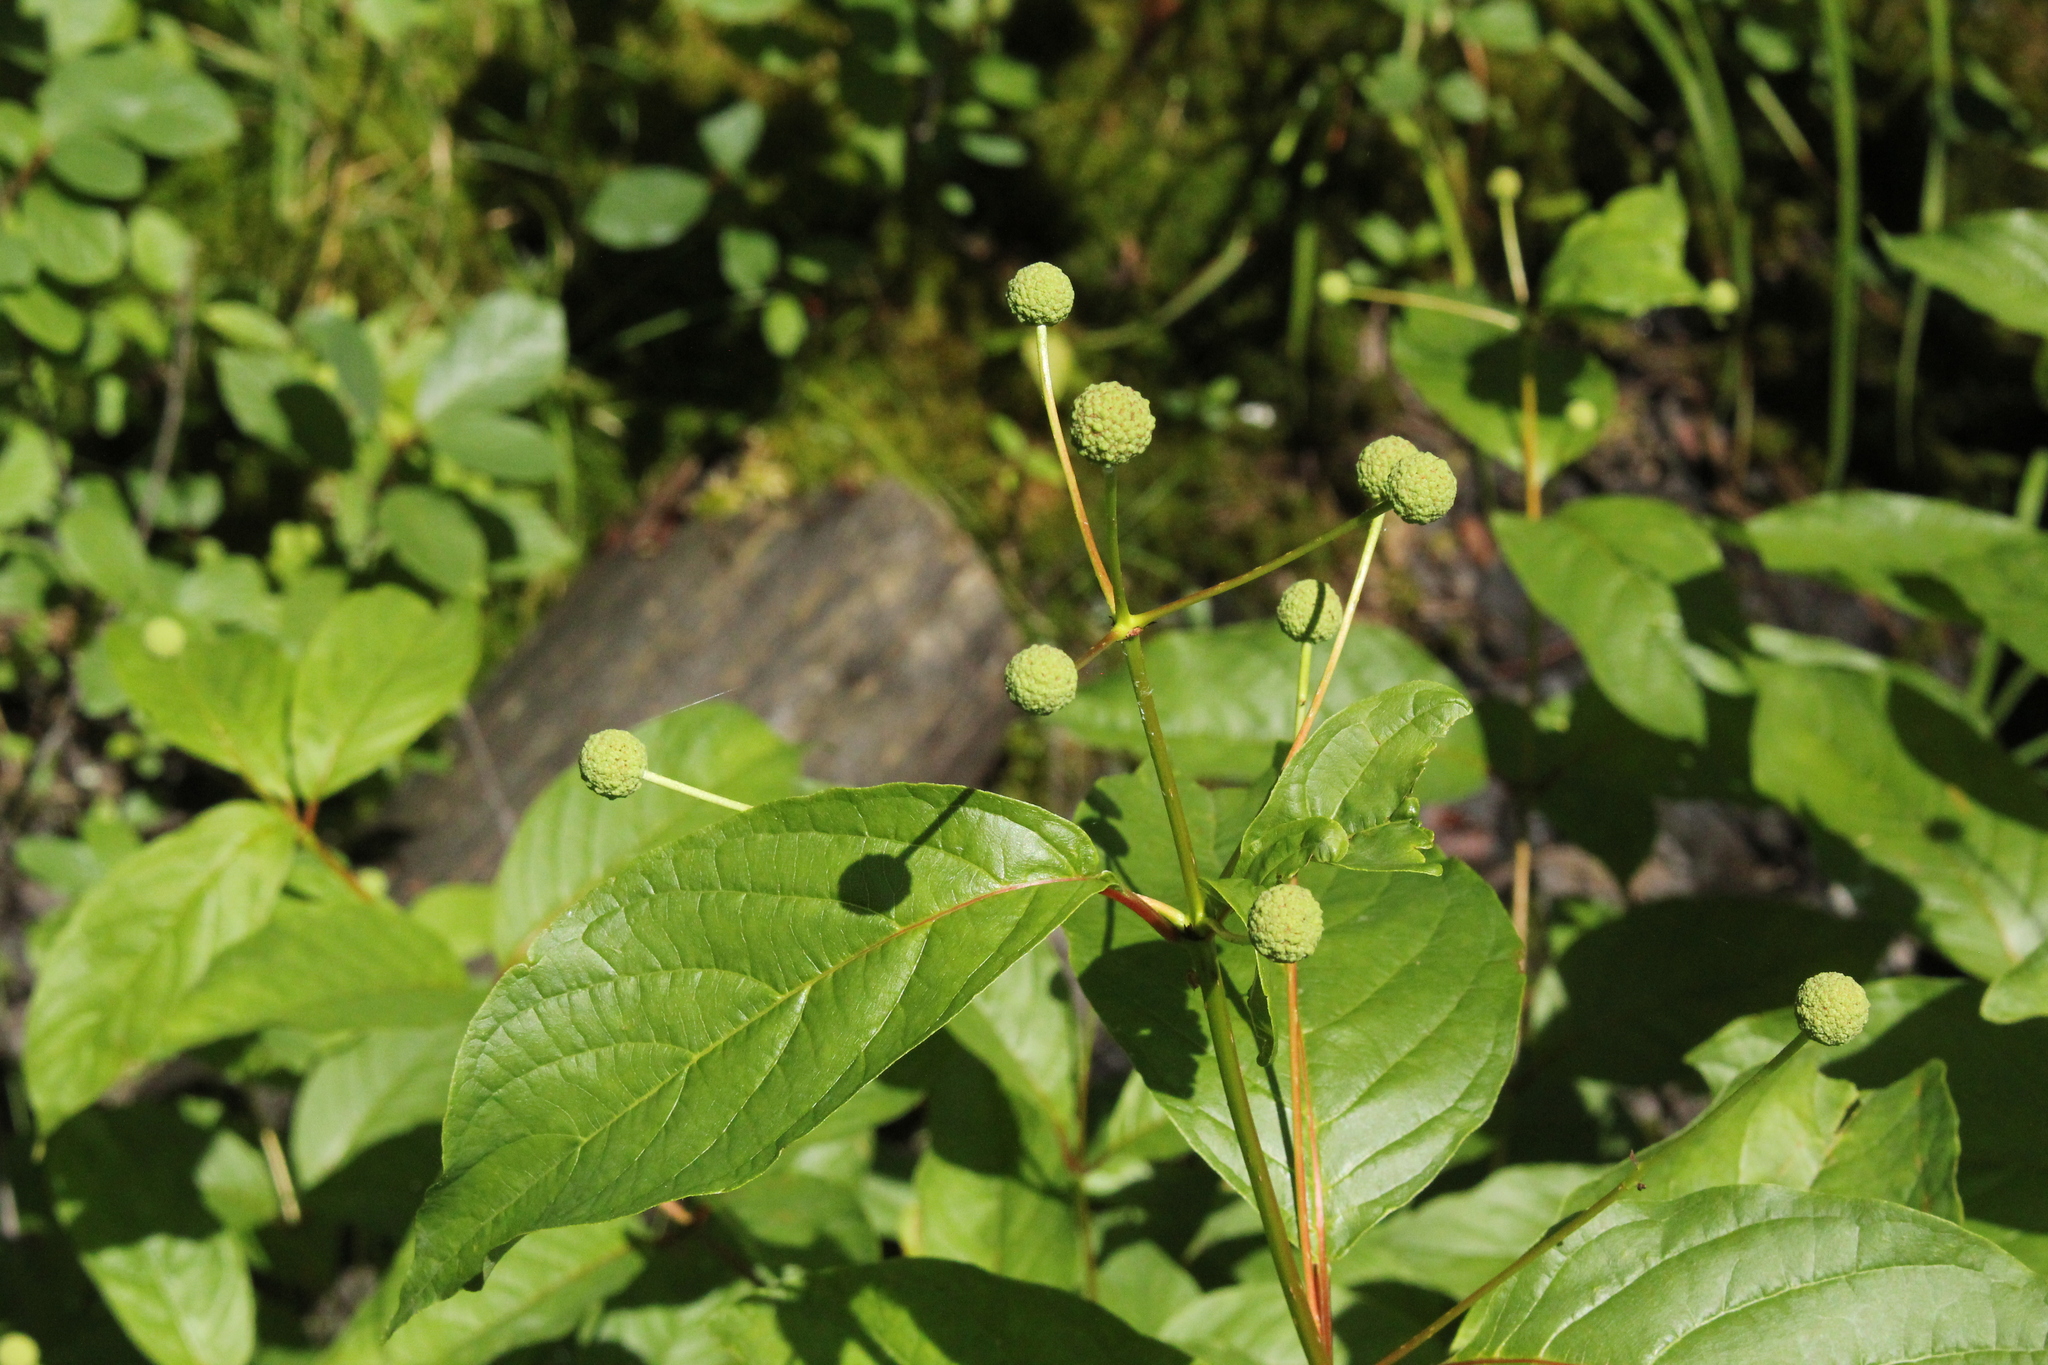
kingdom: Plantae
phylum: Tracheophyta
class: Magnoliopsida
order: Gentianales
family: Rubiaceae
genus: Cephalanthus
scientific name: Cephalanthus occidentalis
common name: Button-willow
